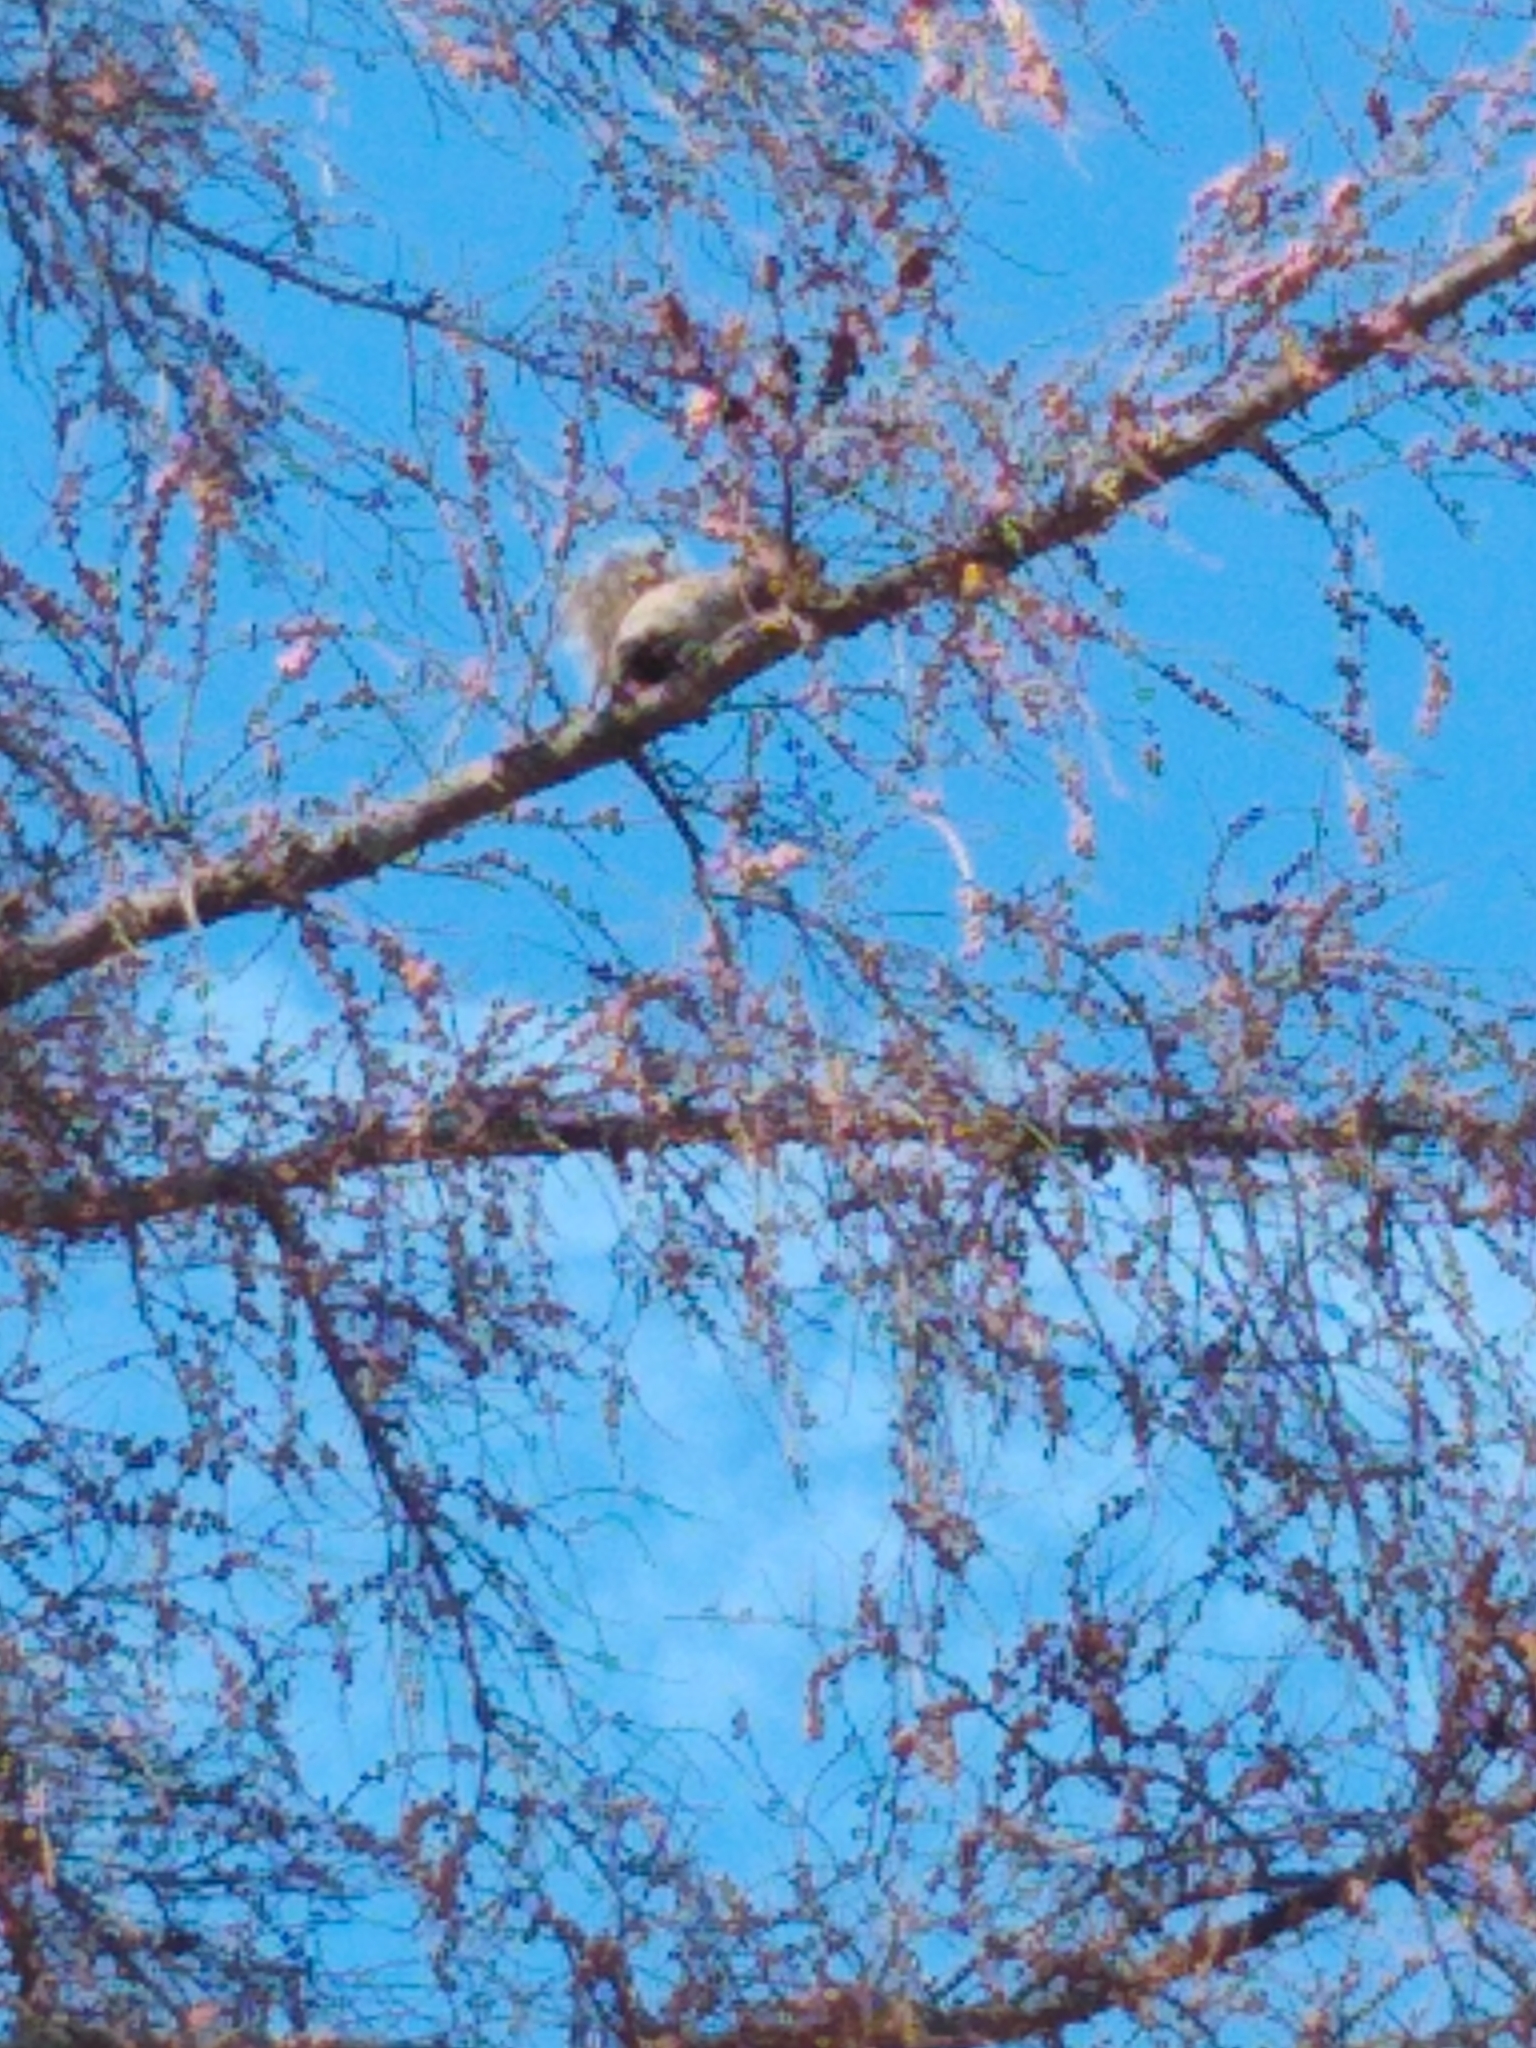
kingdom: Animalia
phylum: Chordata
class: Mammalia
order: Rodentia
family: Sciuridae
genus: Sciurus
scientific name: Sciurus carolinensis
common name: Eastern gray squirrel
